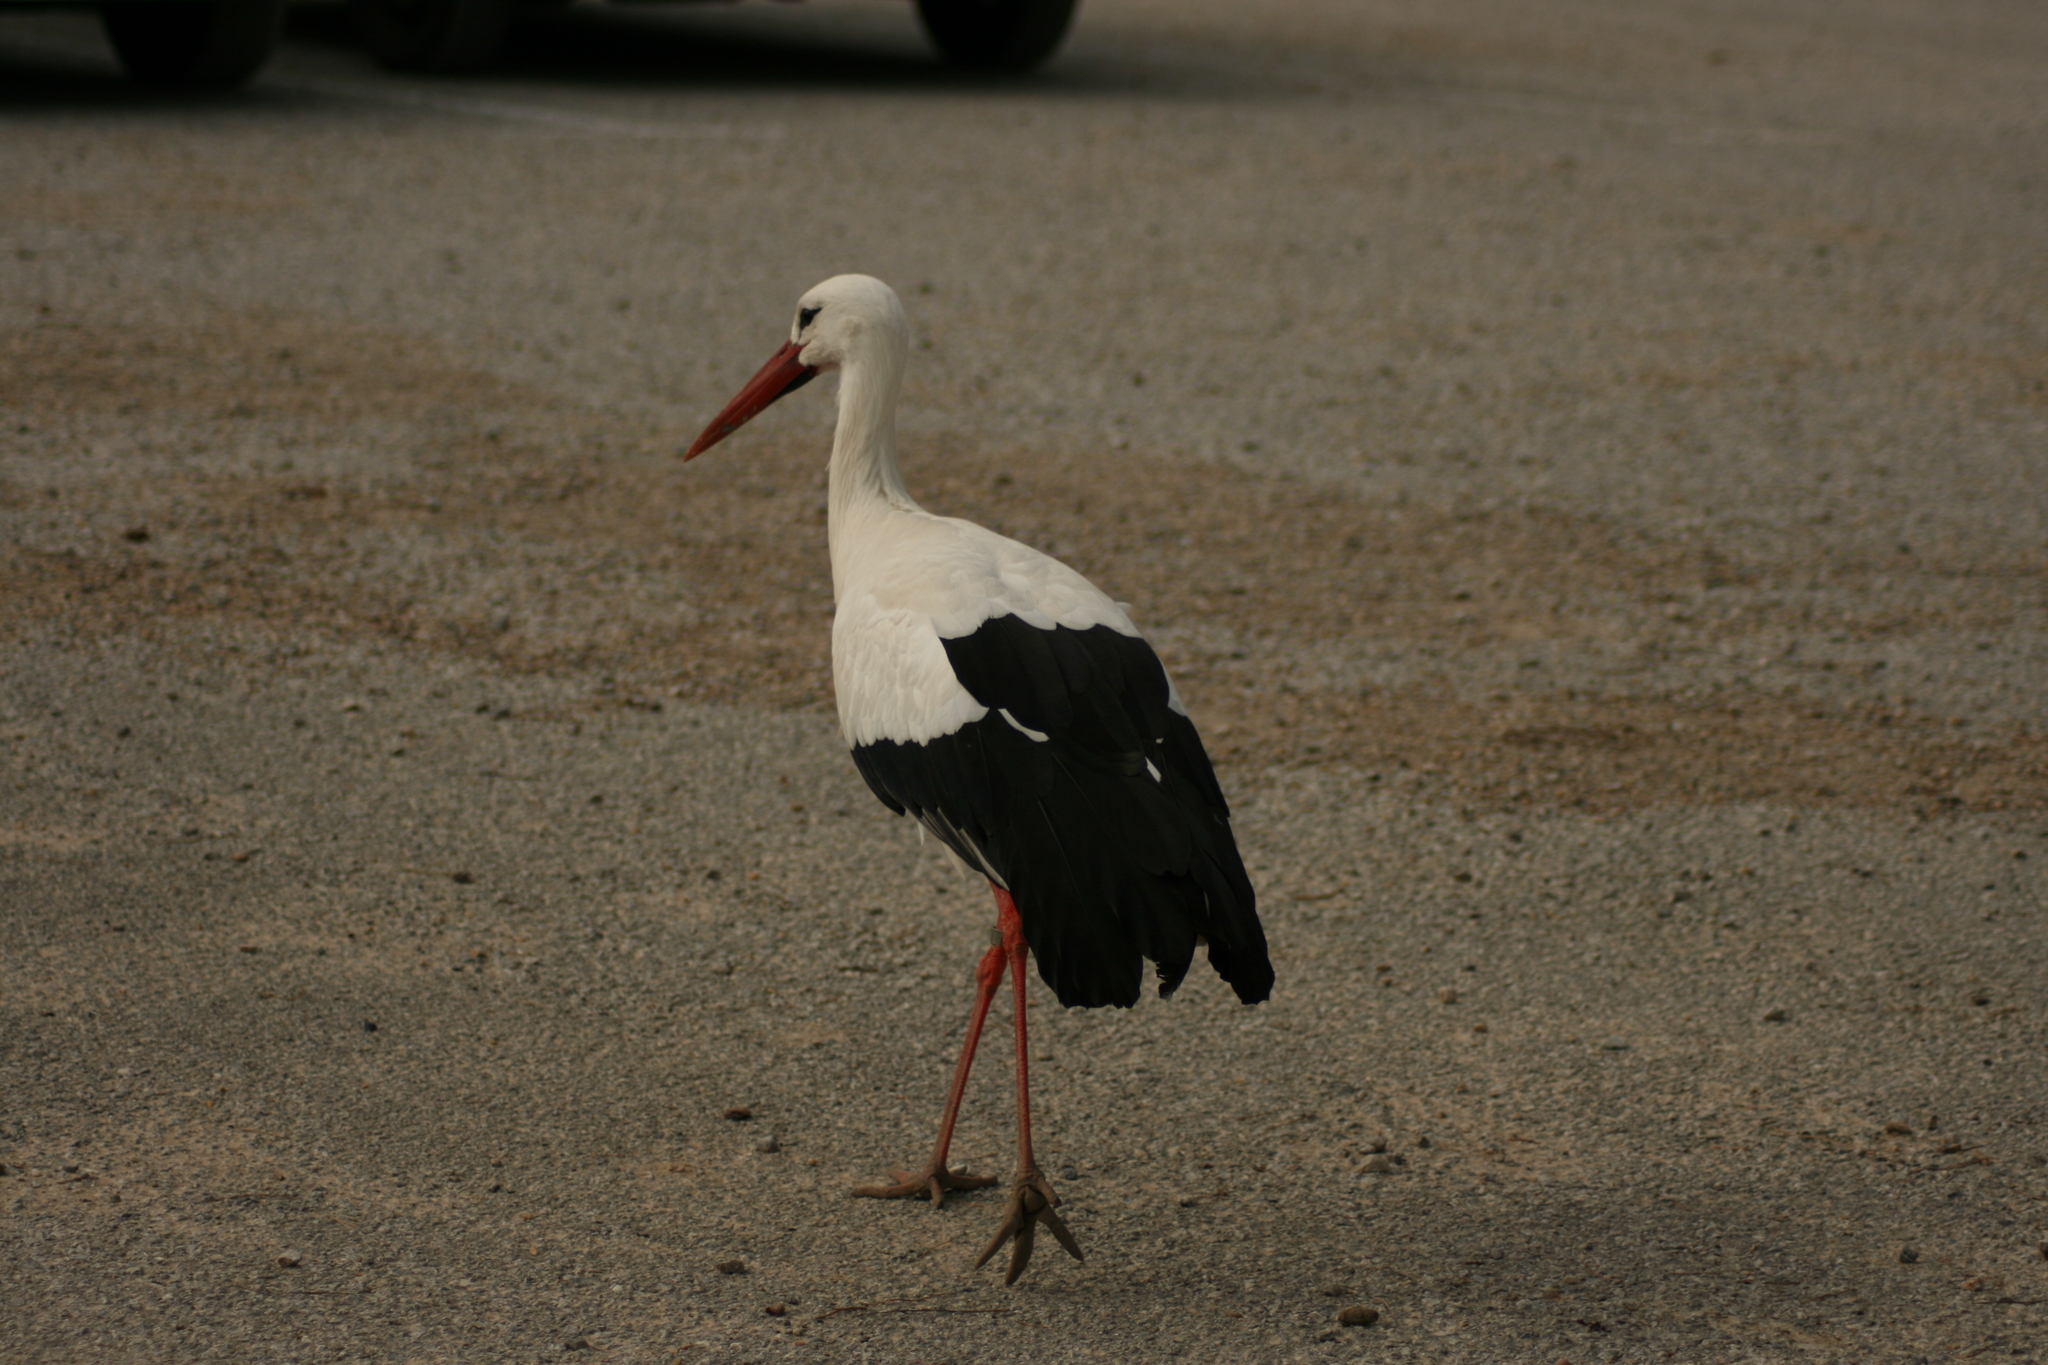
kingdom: Animalia
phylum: Chordata
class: Aves
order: Ciconiiformes
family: Ciconiidae
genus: Ciconia
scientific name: Ciconia ciconia
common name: White stork
